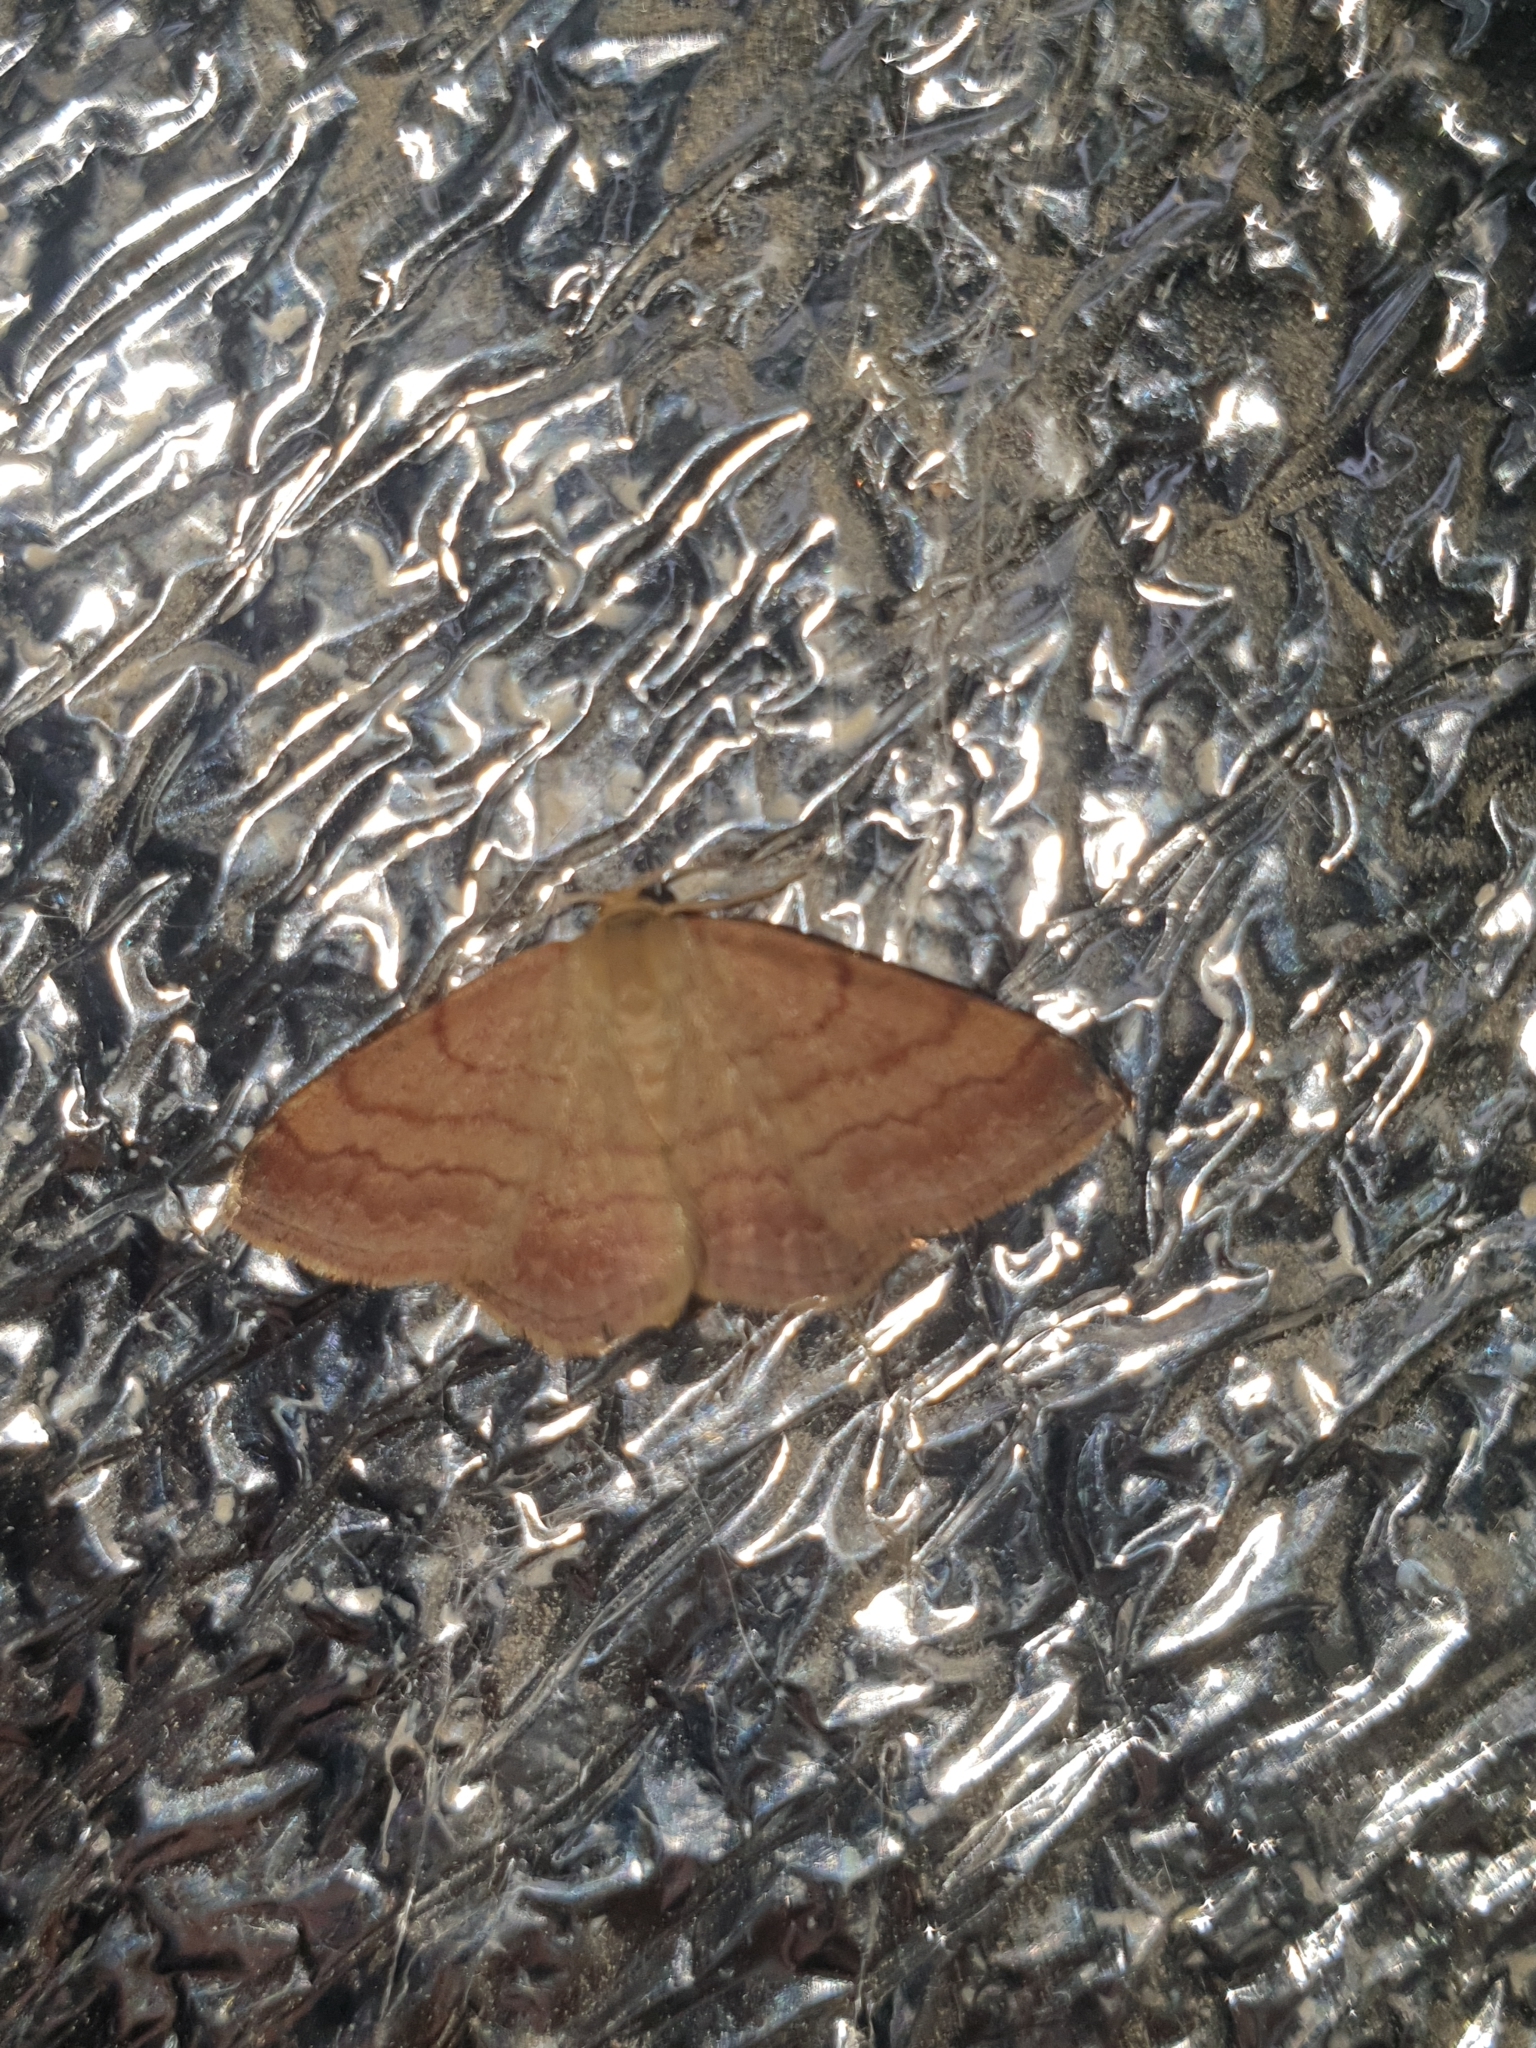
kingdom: Animalia
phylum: Arthropoda
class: Insecta
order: Lepidoptera
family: Geometridae
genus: Scopula
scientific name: Scopula rubiginata
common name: Tawny wave
